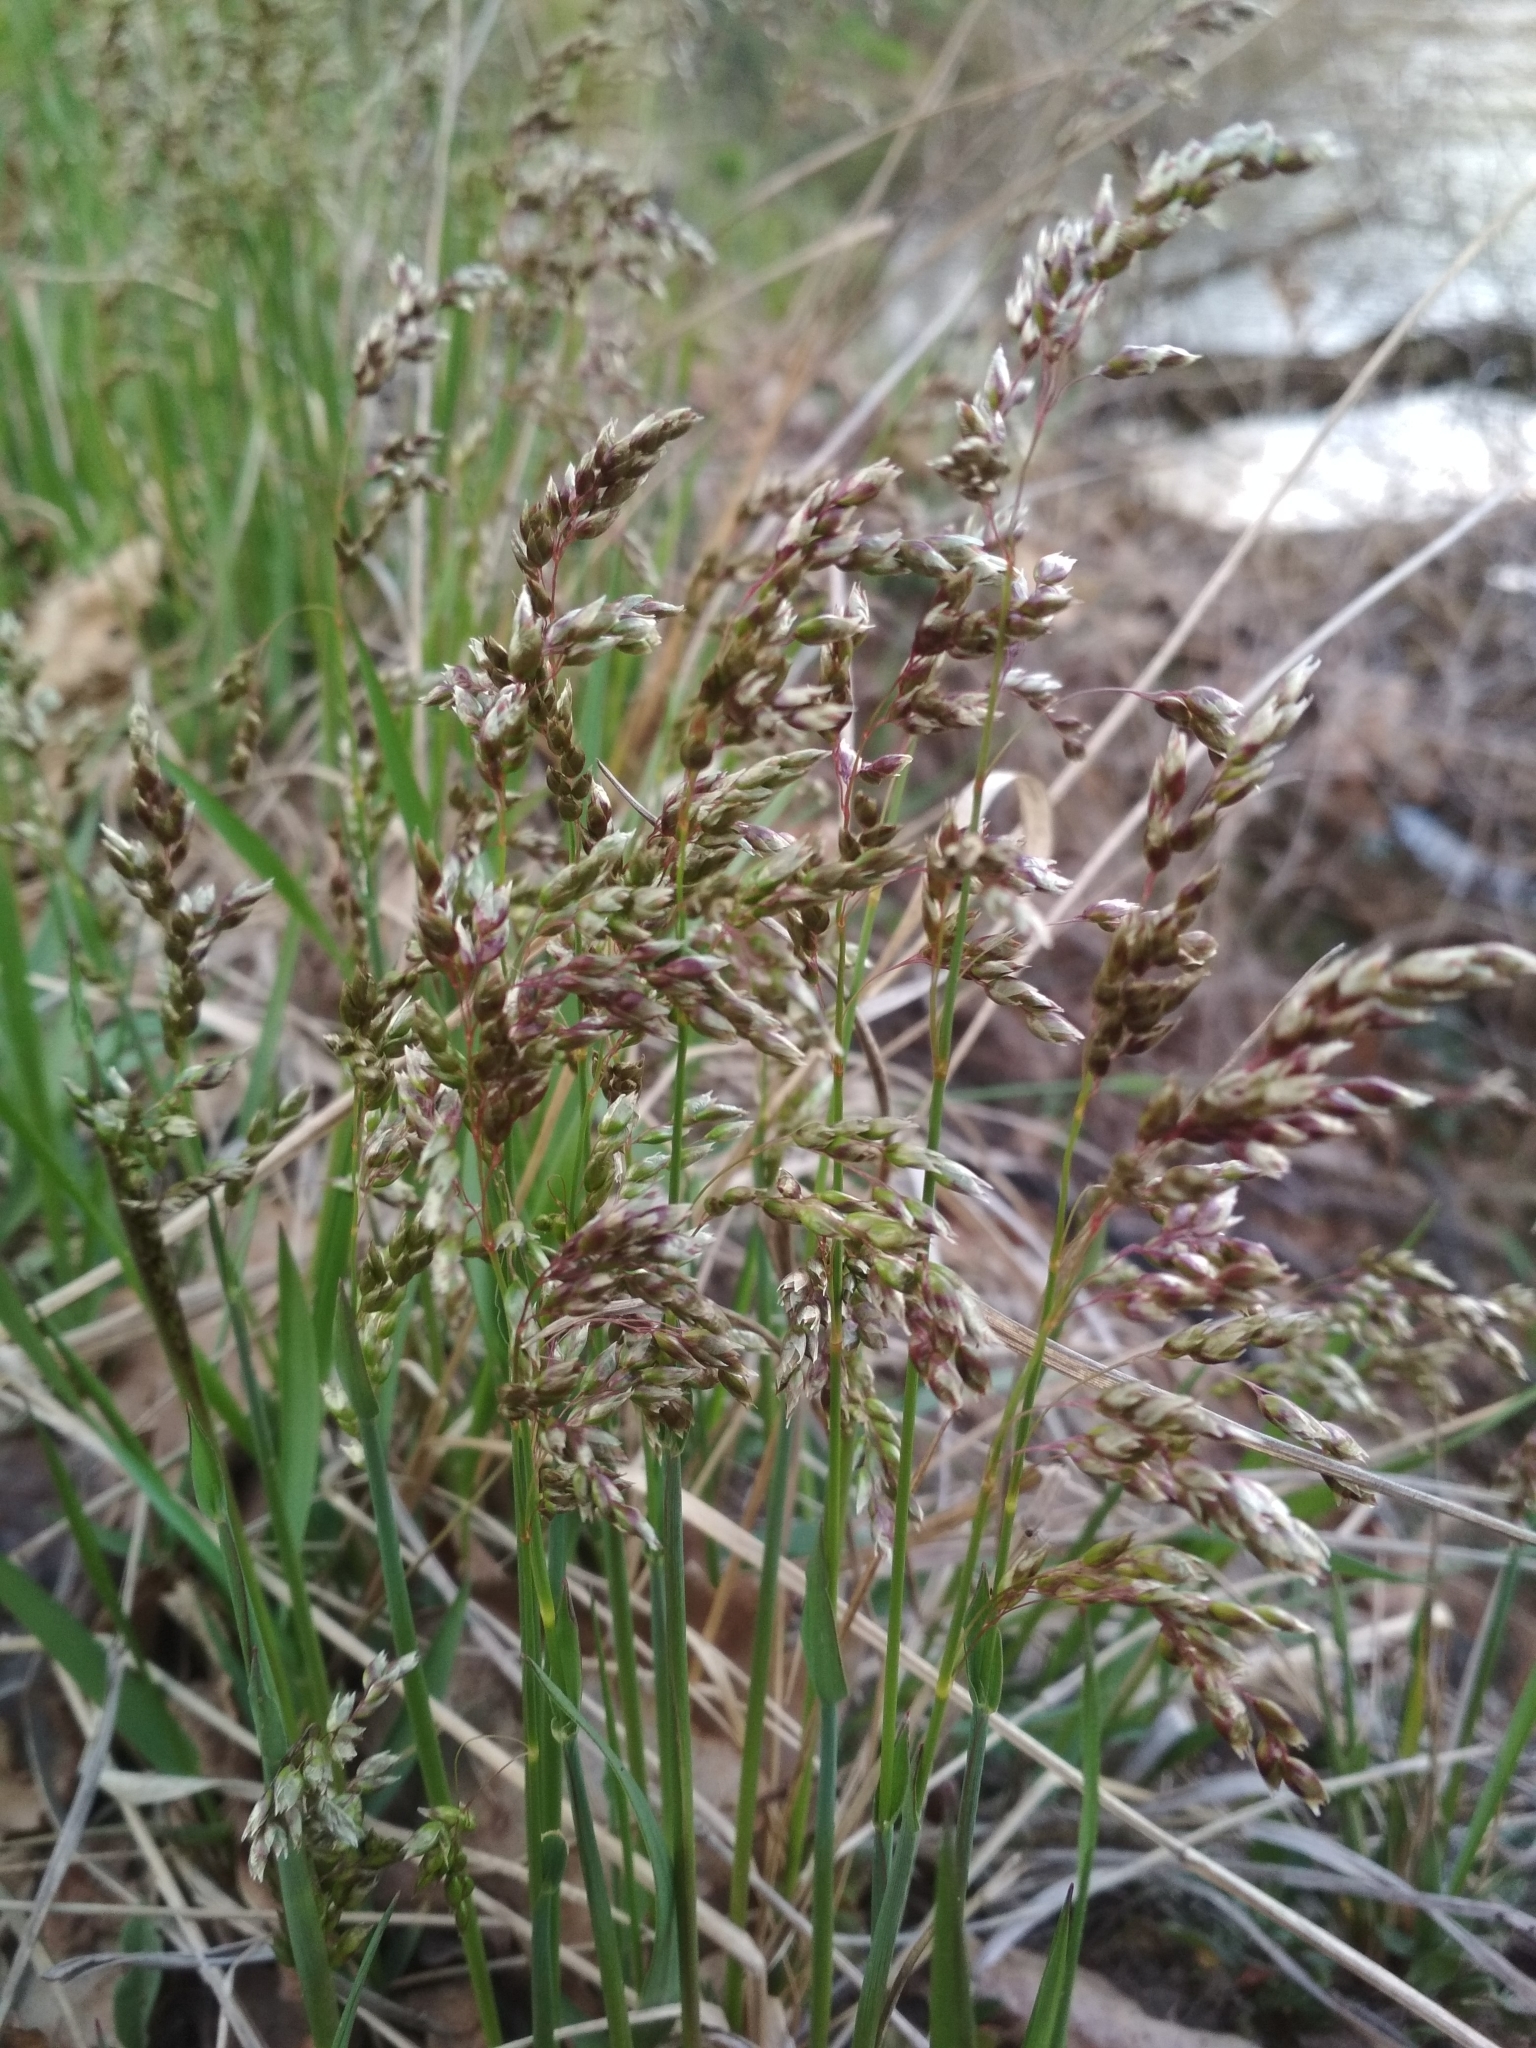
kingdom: Plantae
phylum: Tracheophyta
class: Liliopsida
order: Poales
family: Poaceae
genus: Anthoxanthum
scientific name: Anthoxanthum nitens
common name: Holy grass
